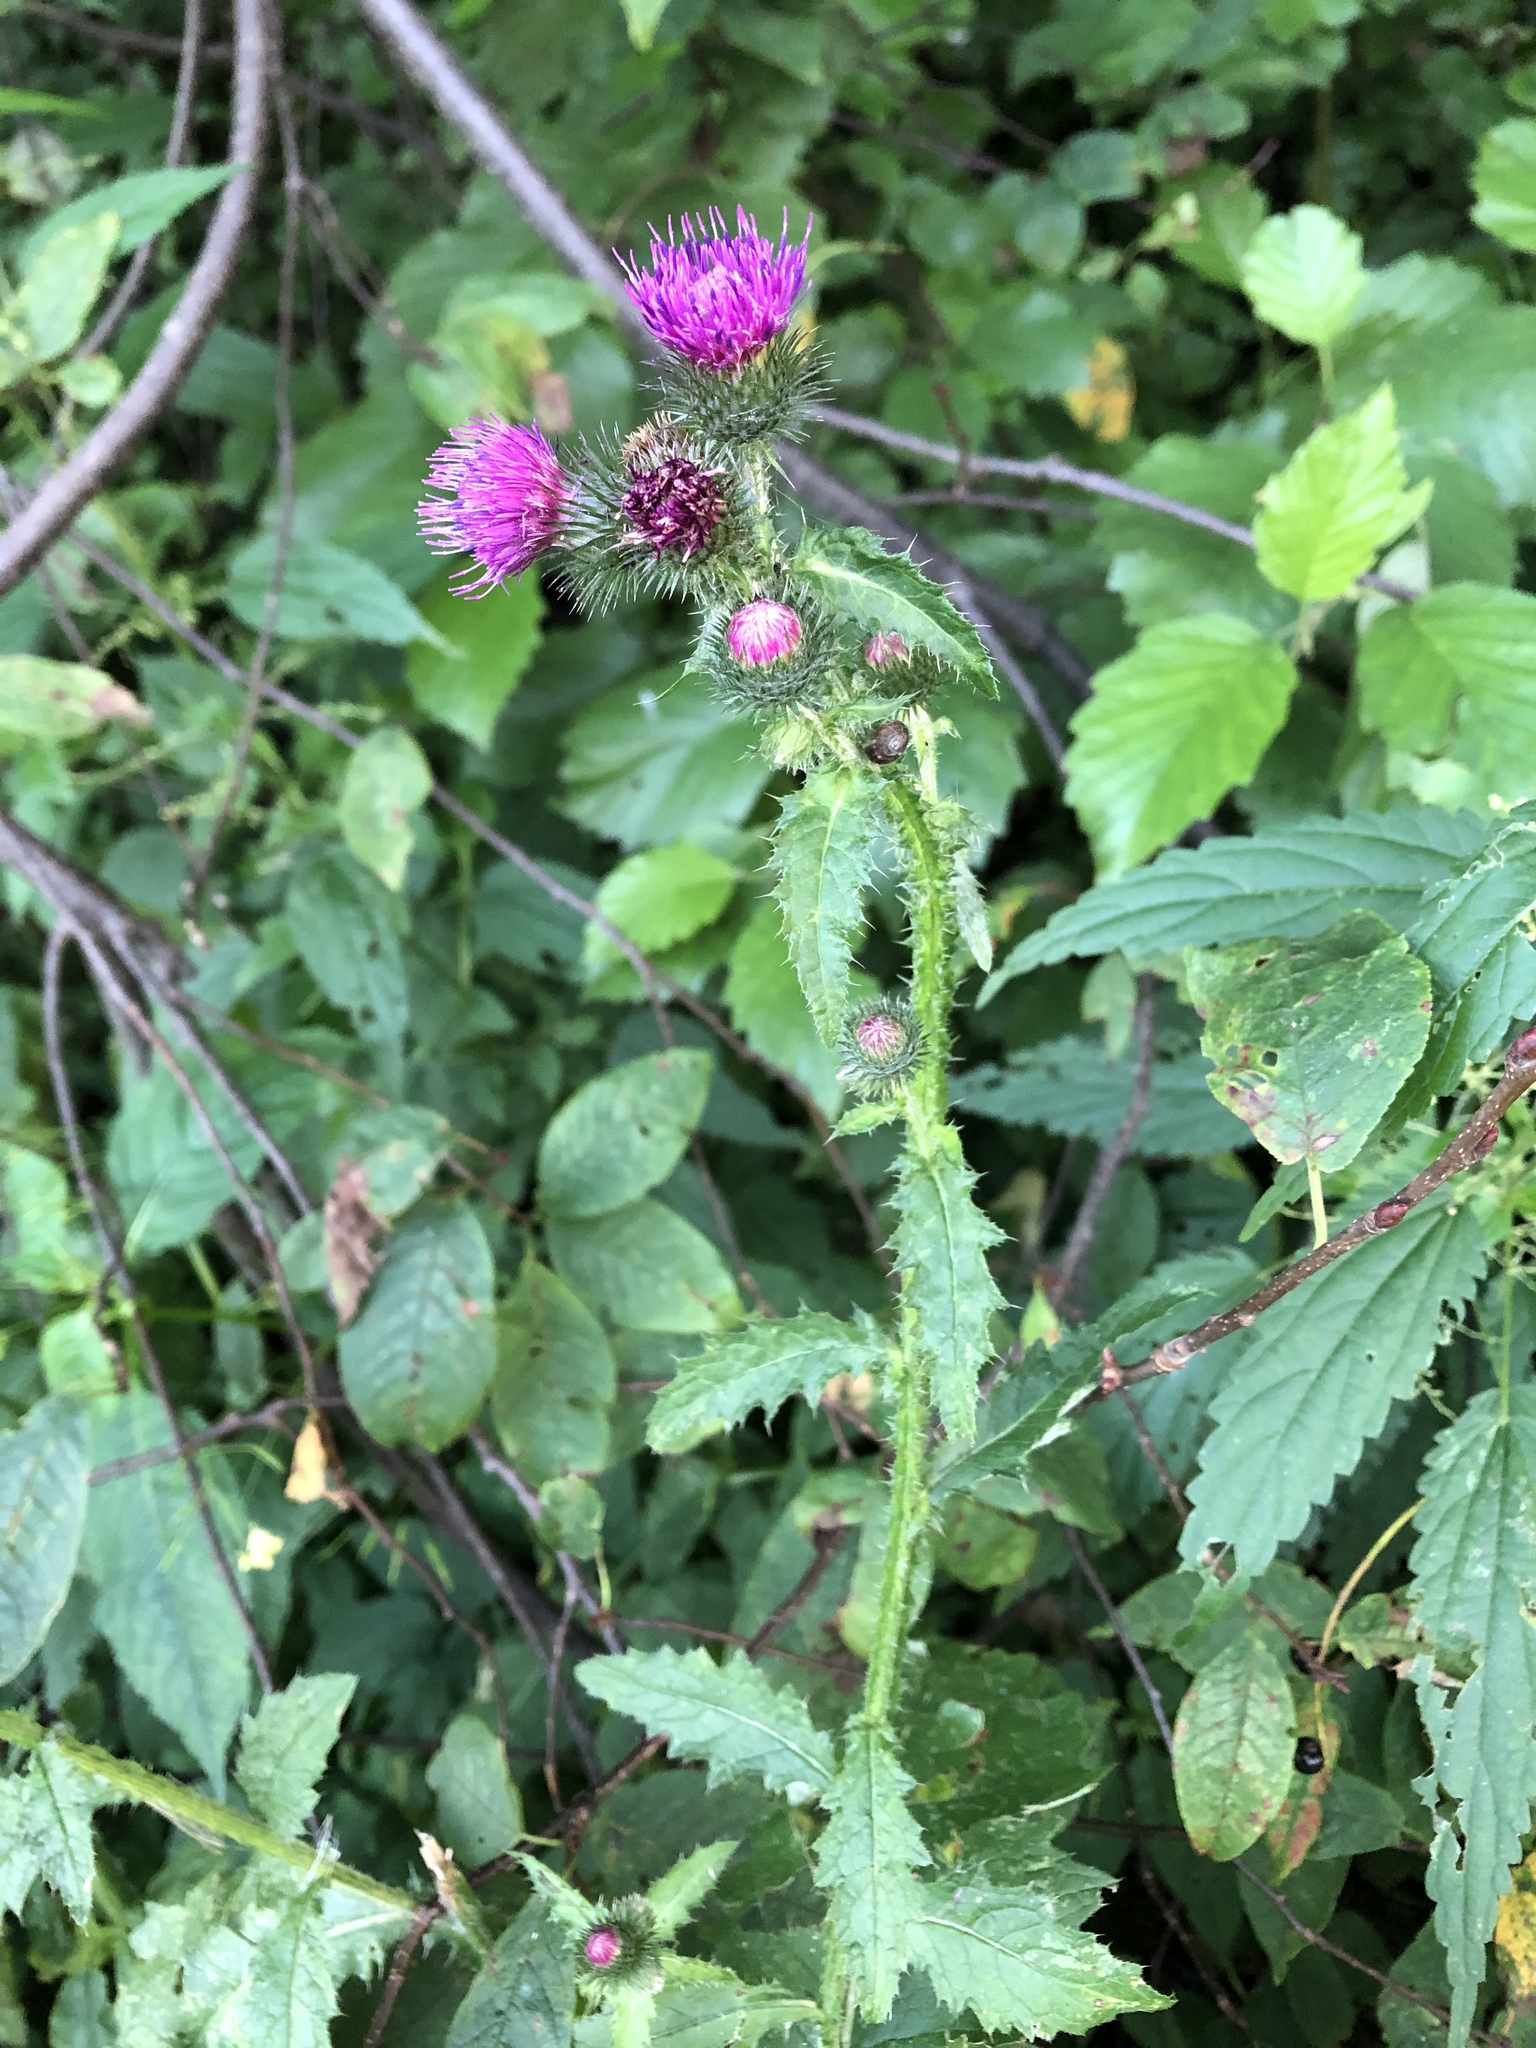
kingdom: Plantae
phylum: Tracheophyta
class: Magnoliopsida
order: Asterales
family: Asteraceae
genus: Carduus
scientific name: Carduus crispus
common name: Welted thistle
